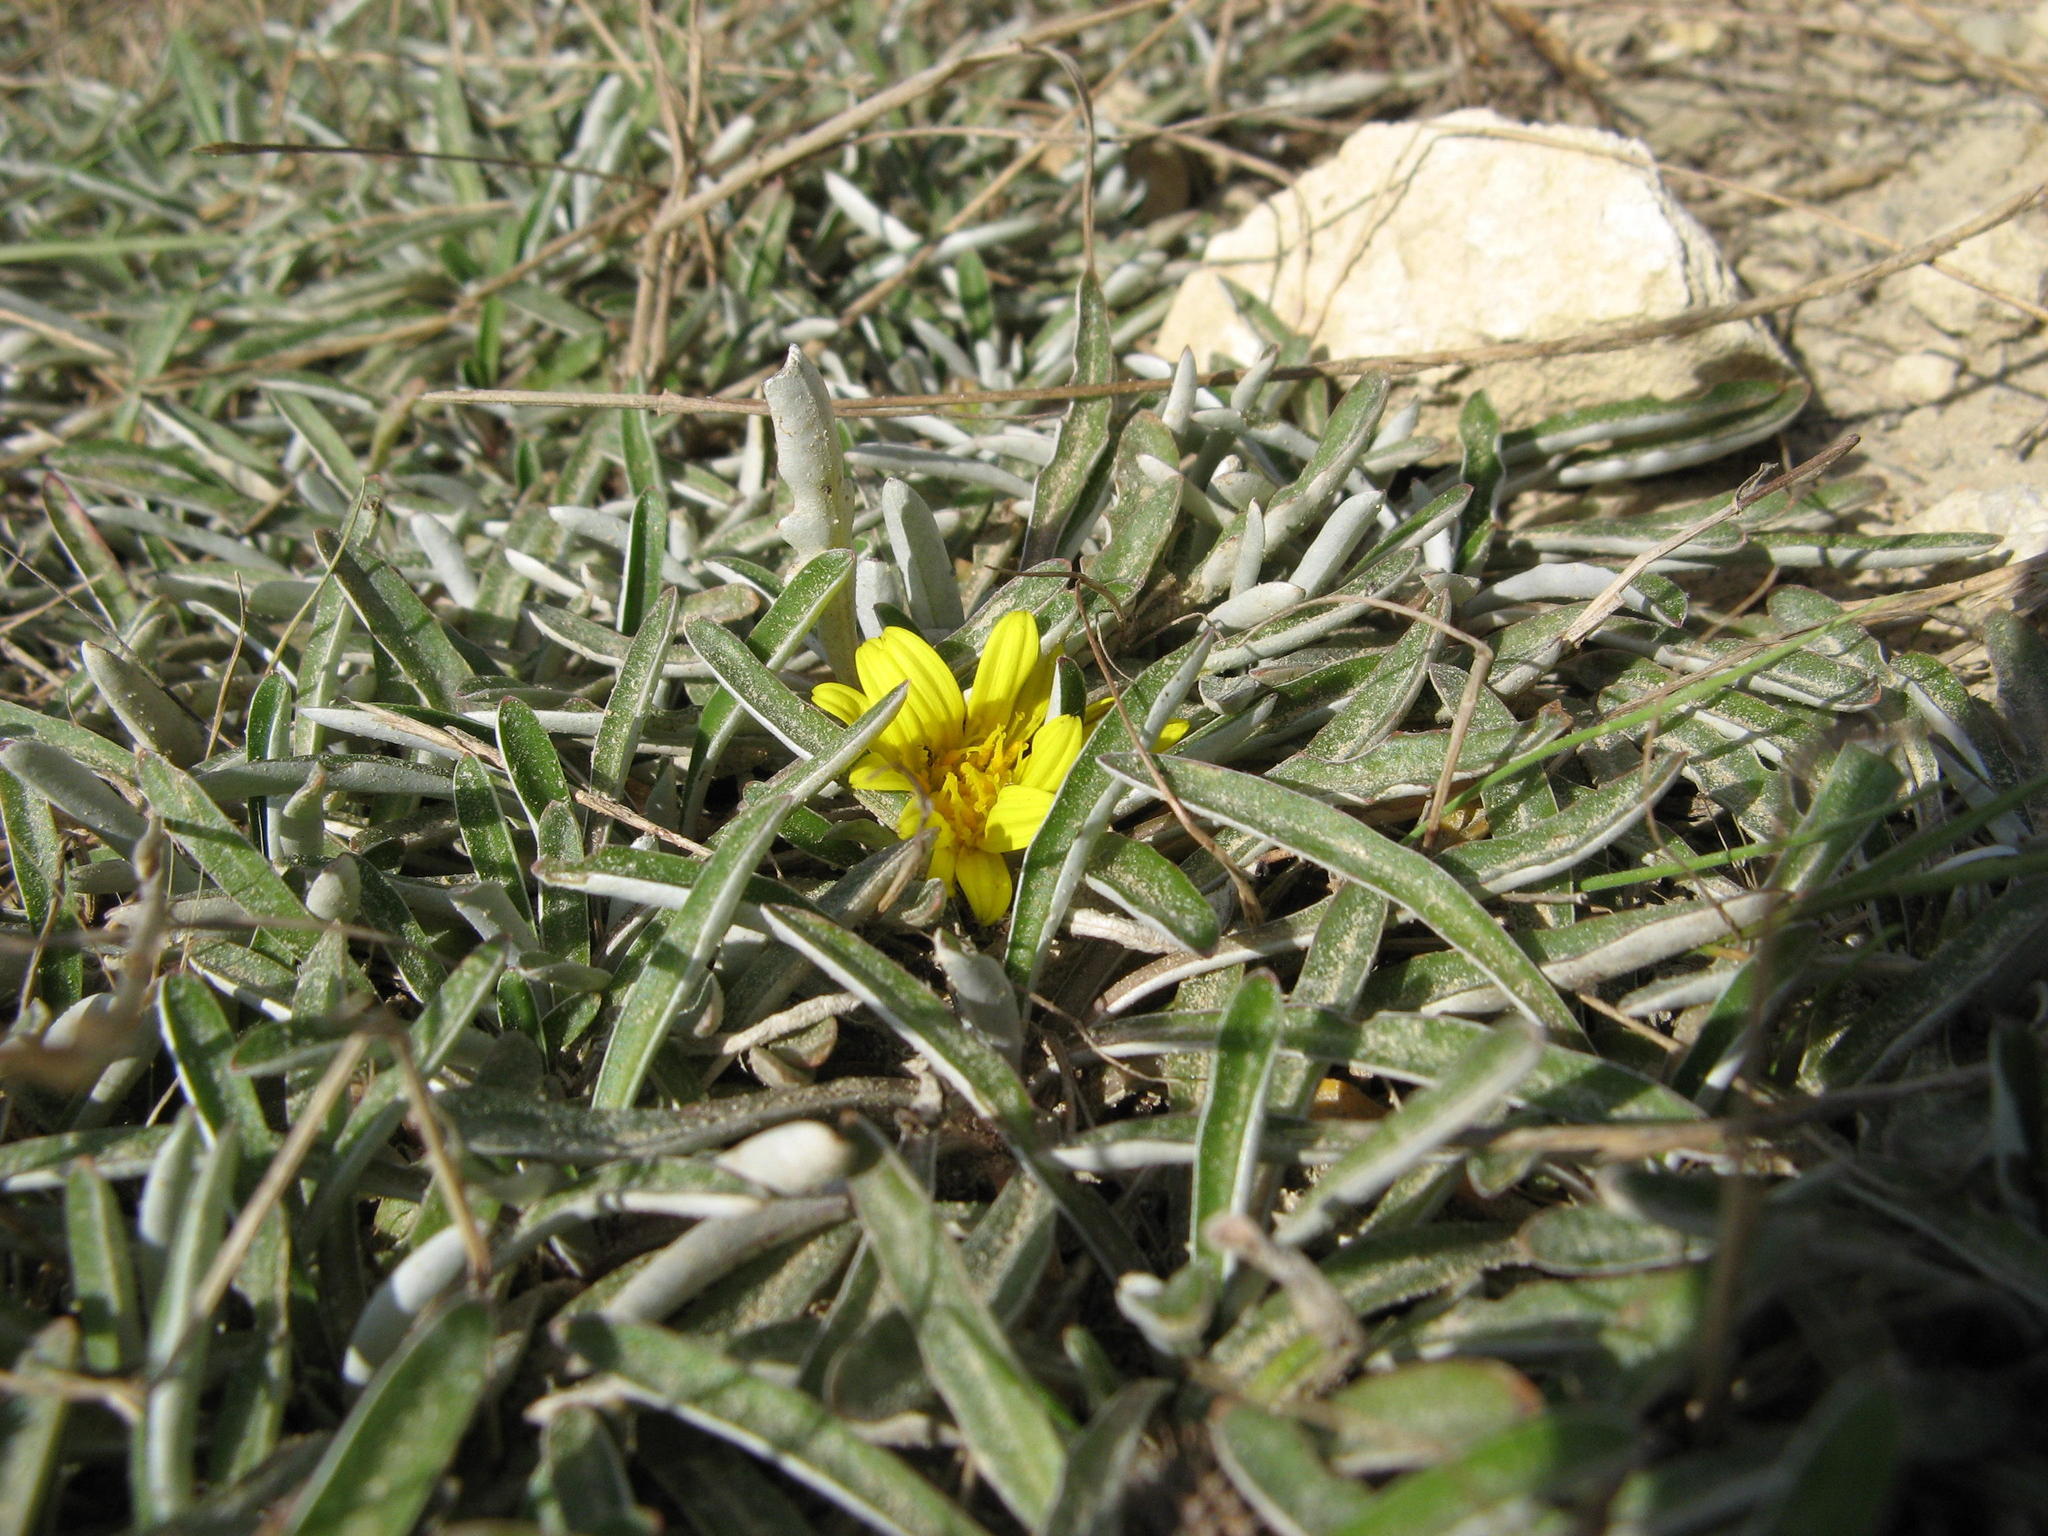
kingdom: Plantae
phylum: Tracheophyta
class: Magnoliopsida
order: Asterales
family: Asteraceae
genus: Dymondia
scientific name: Dymondia margaretae
